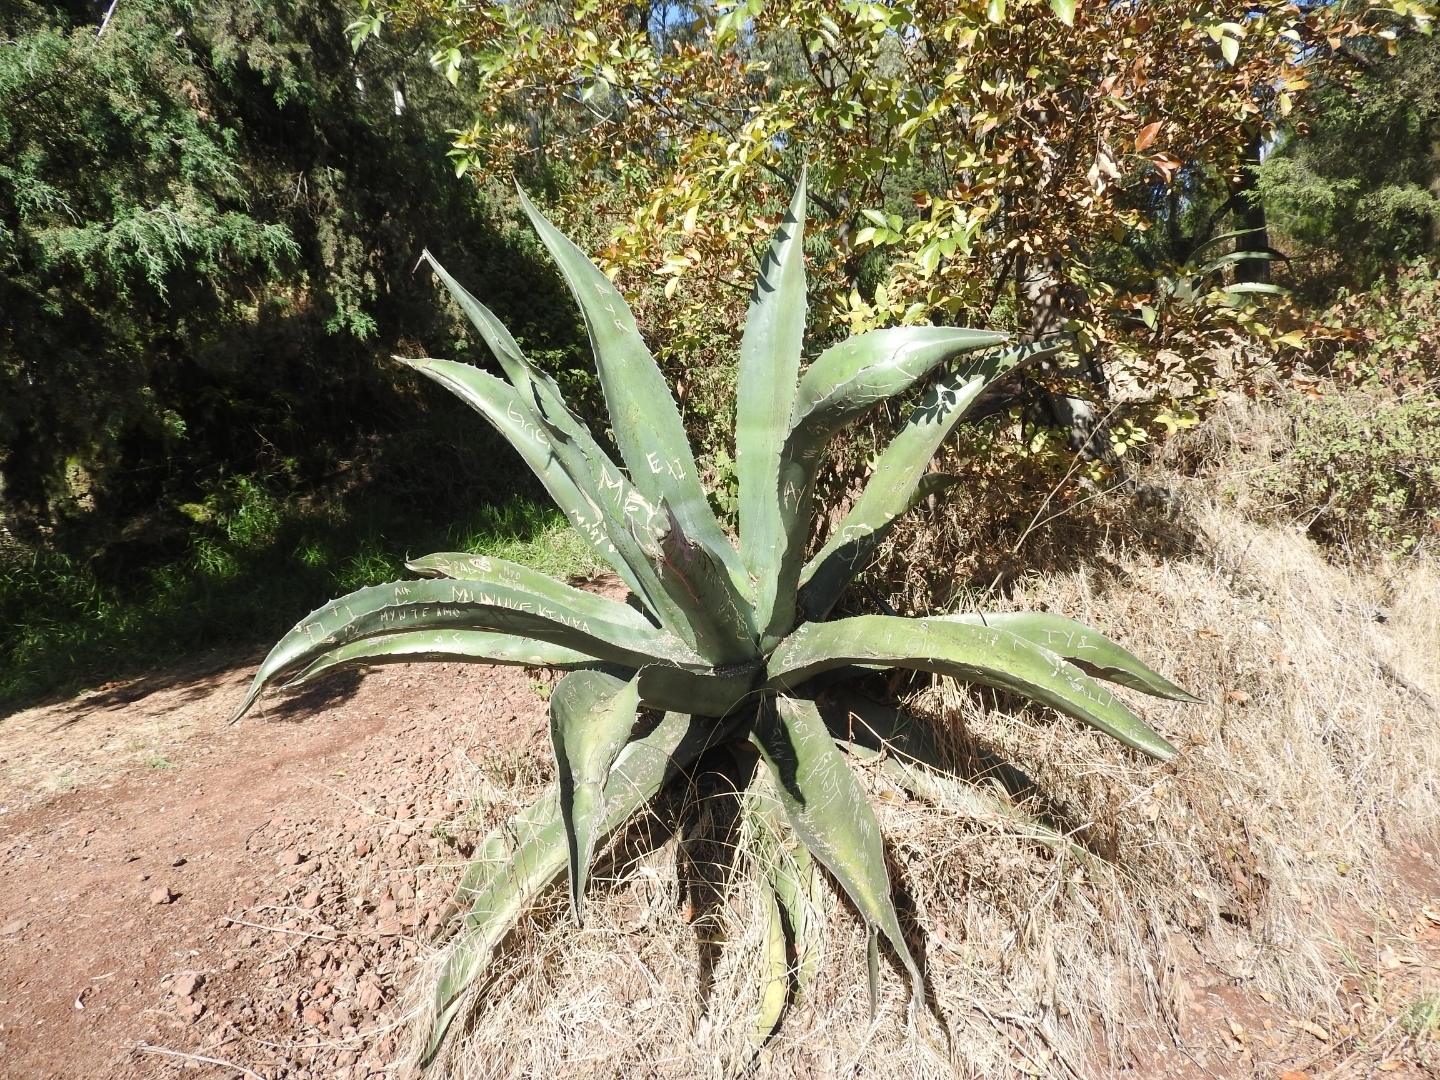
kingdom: Plantae
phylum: Tracheophyta
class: Liliopsida
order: Asparagales
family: Asparagaceae
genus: Agave
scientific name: Agave salmiana
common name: Pulque agave
